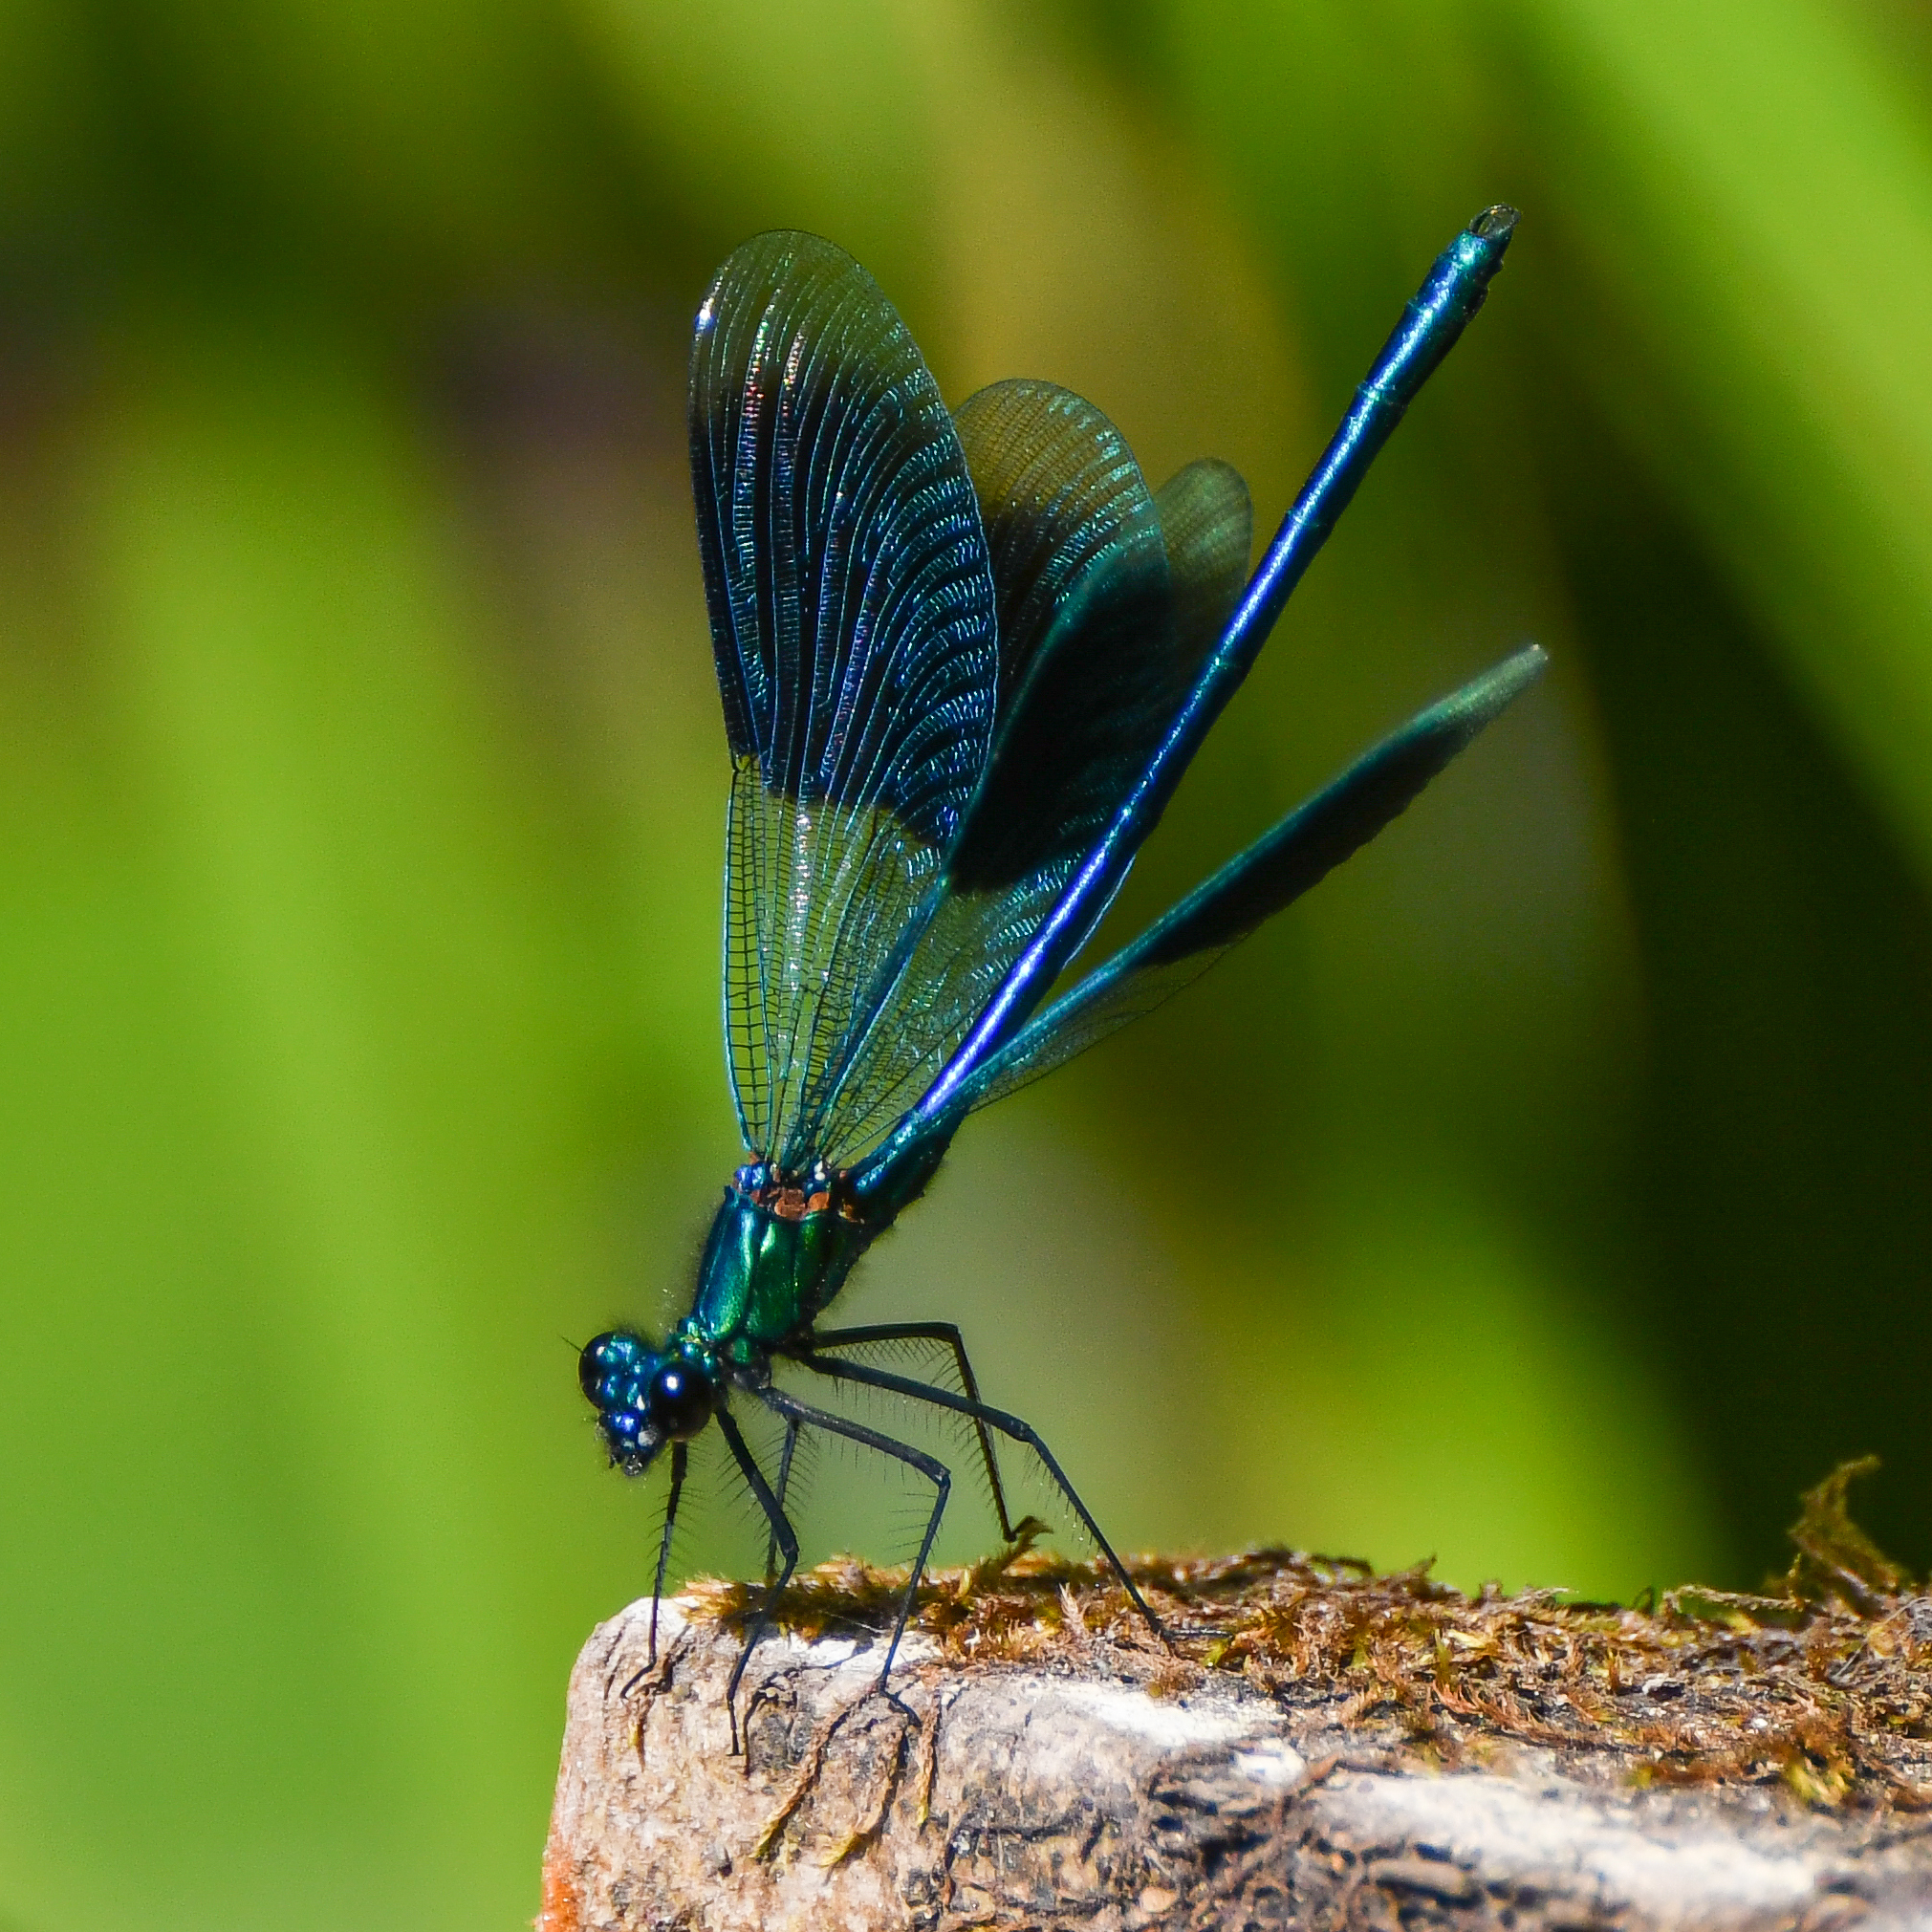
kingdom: Animalia
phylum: Arthropoda
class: Insecta
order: Odonata
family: Calopterygidae
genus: Calopteryx
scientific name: Calopteryx splendens
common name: Banded demoiselle
